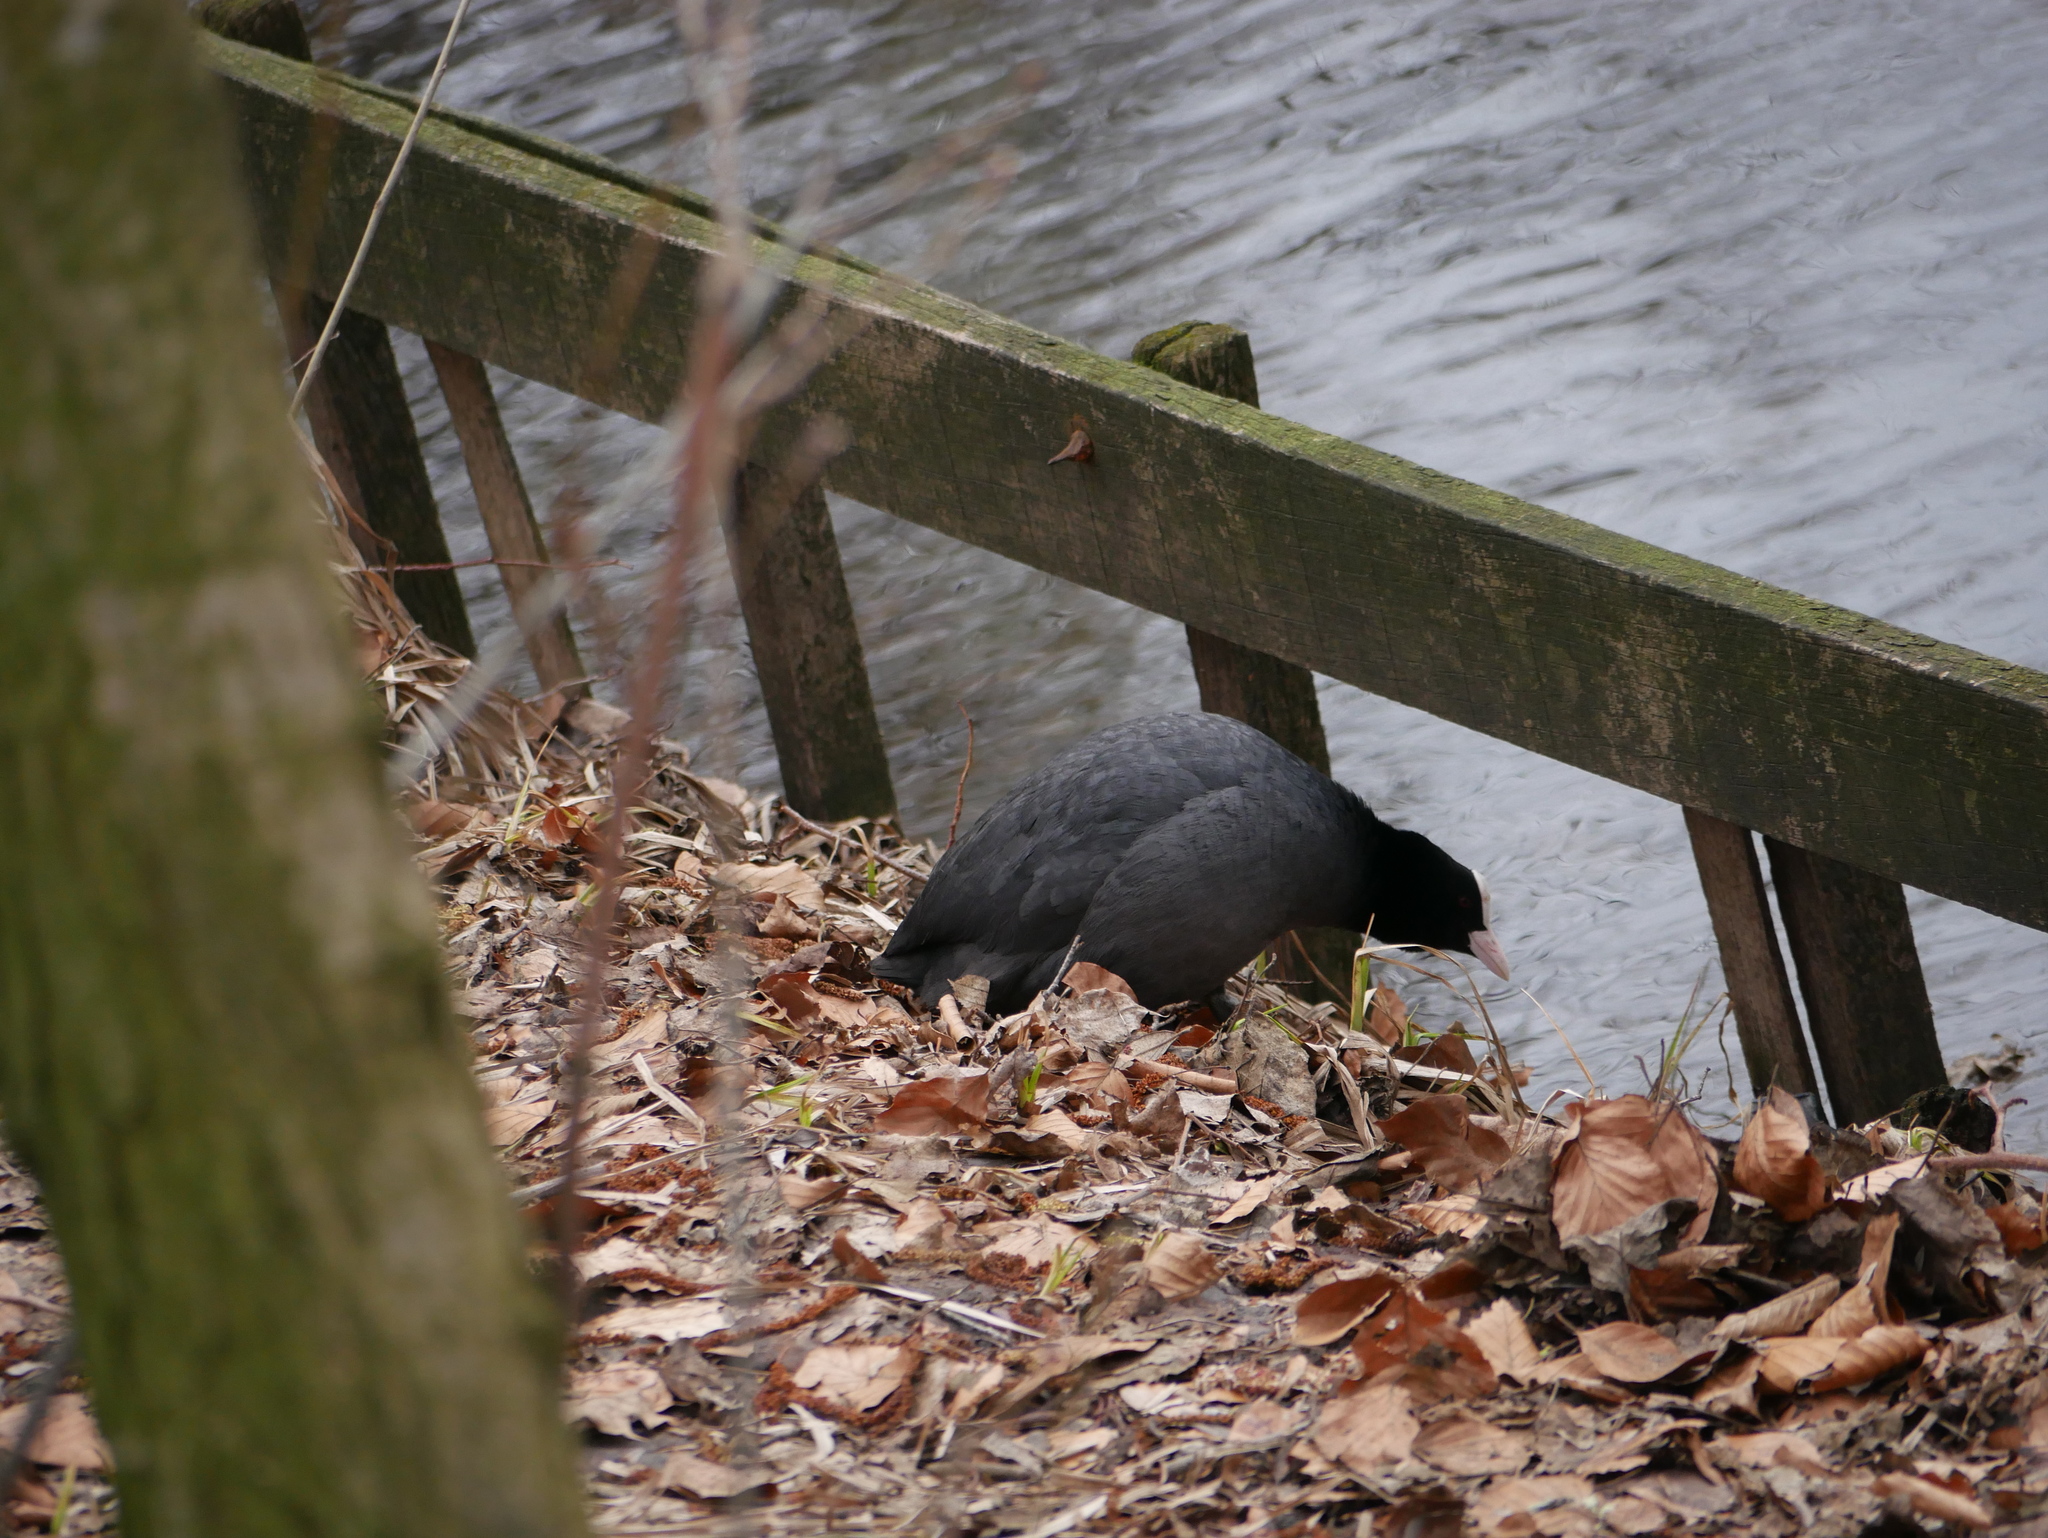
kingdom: Animalia
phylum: Chordata
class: Aves
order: Gruiformes
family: Rallidae
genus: Fulica
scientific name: Fulica atra
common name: Eurasian coot
